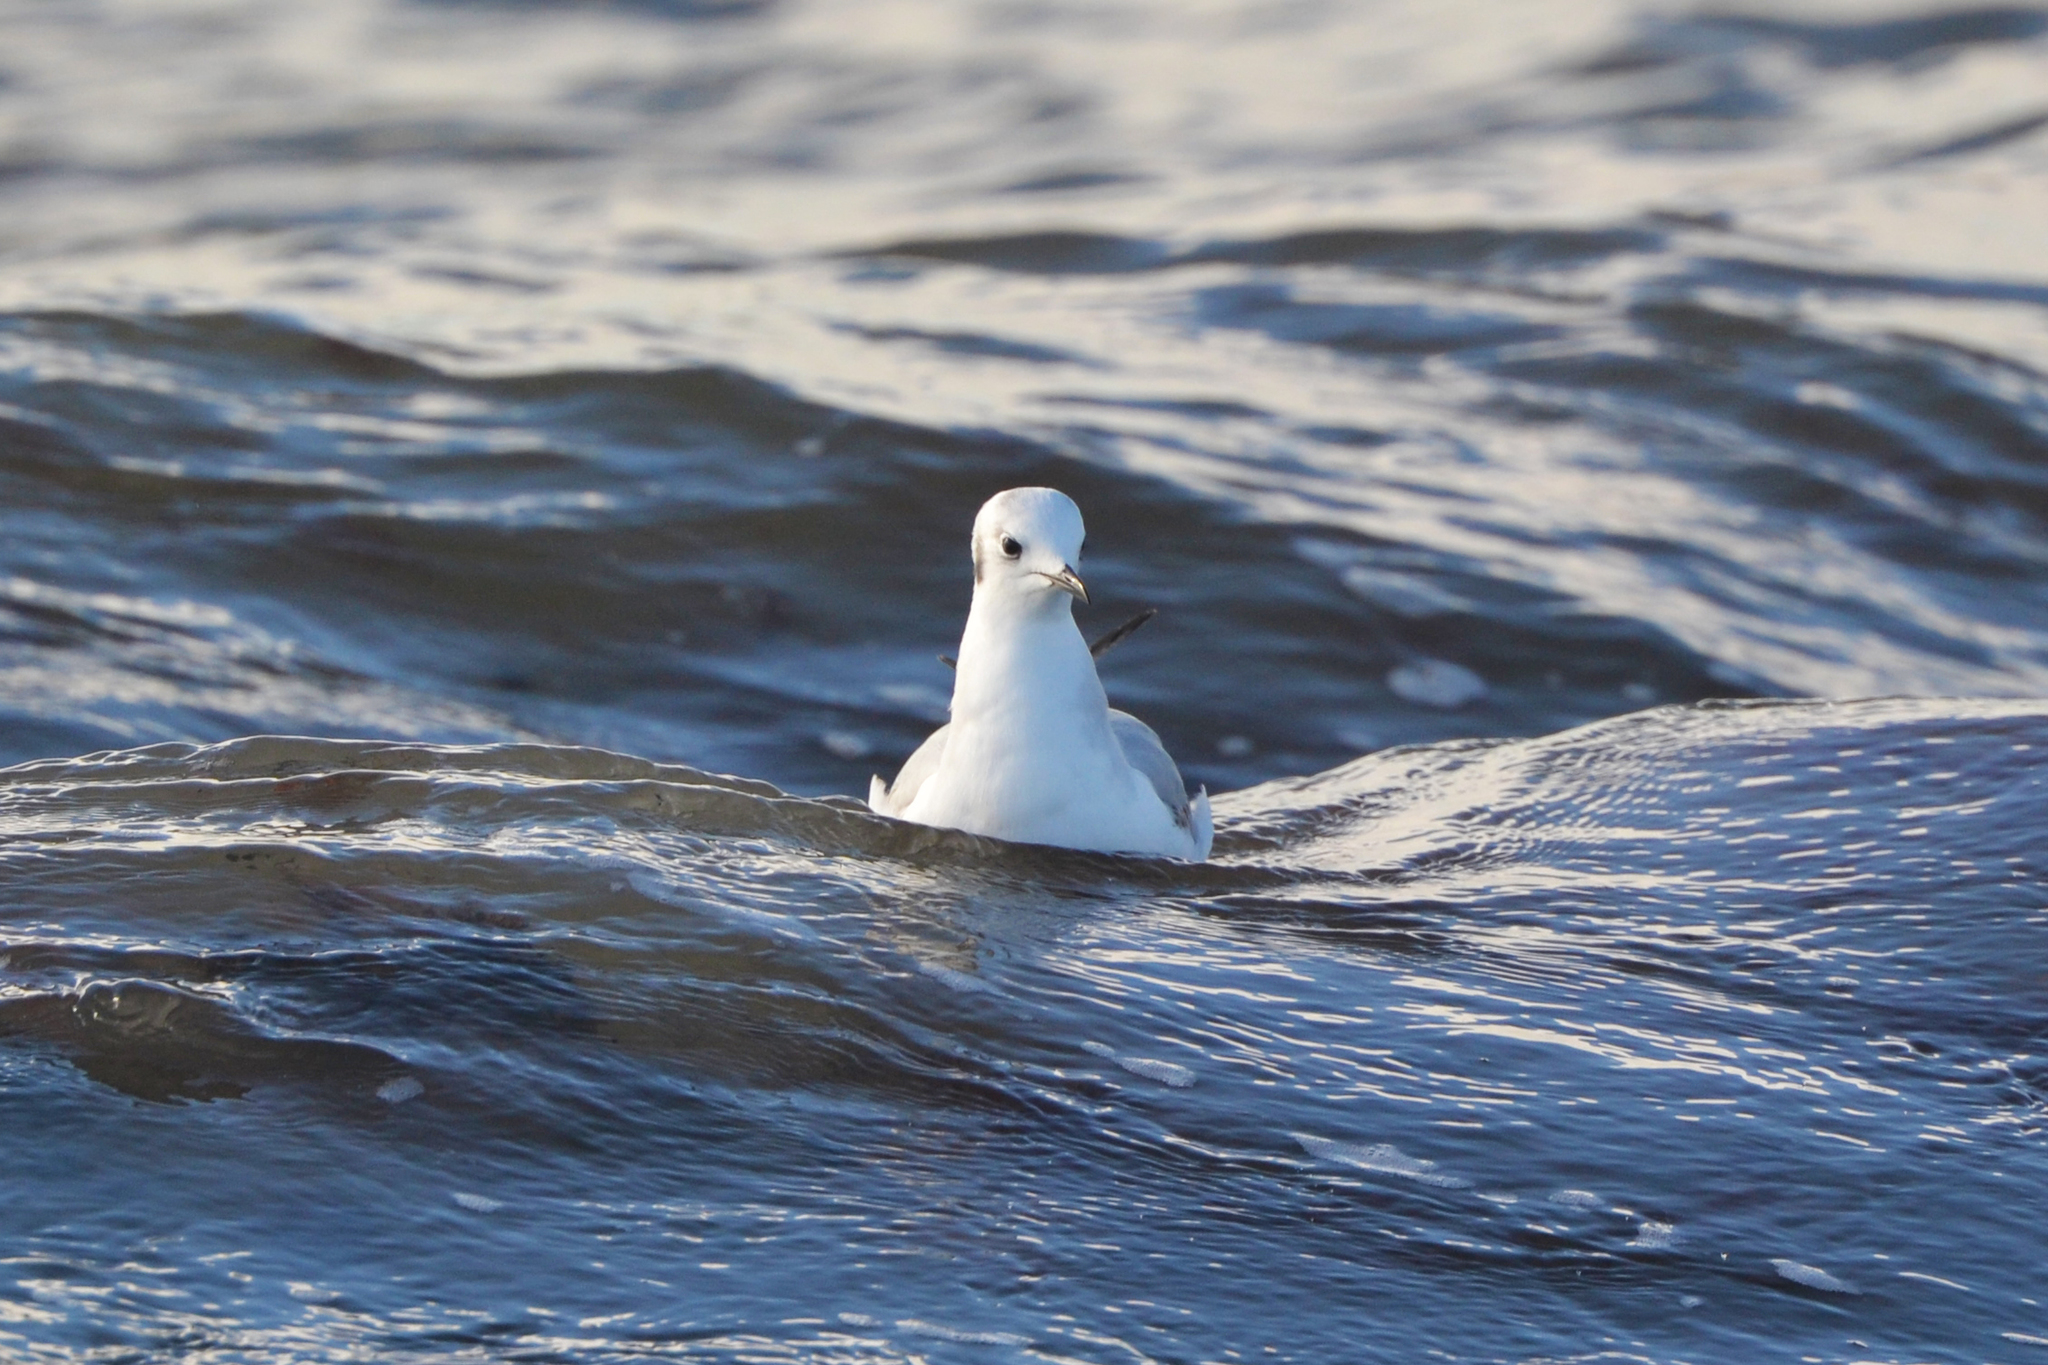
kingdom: Animalia
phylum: Chordata
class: Aves
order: Charadriiformes
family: Laridae
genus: Chroicocephalus
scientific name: Chroicocephalus philadelphia
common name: Bonaparte's gull
